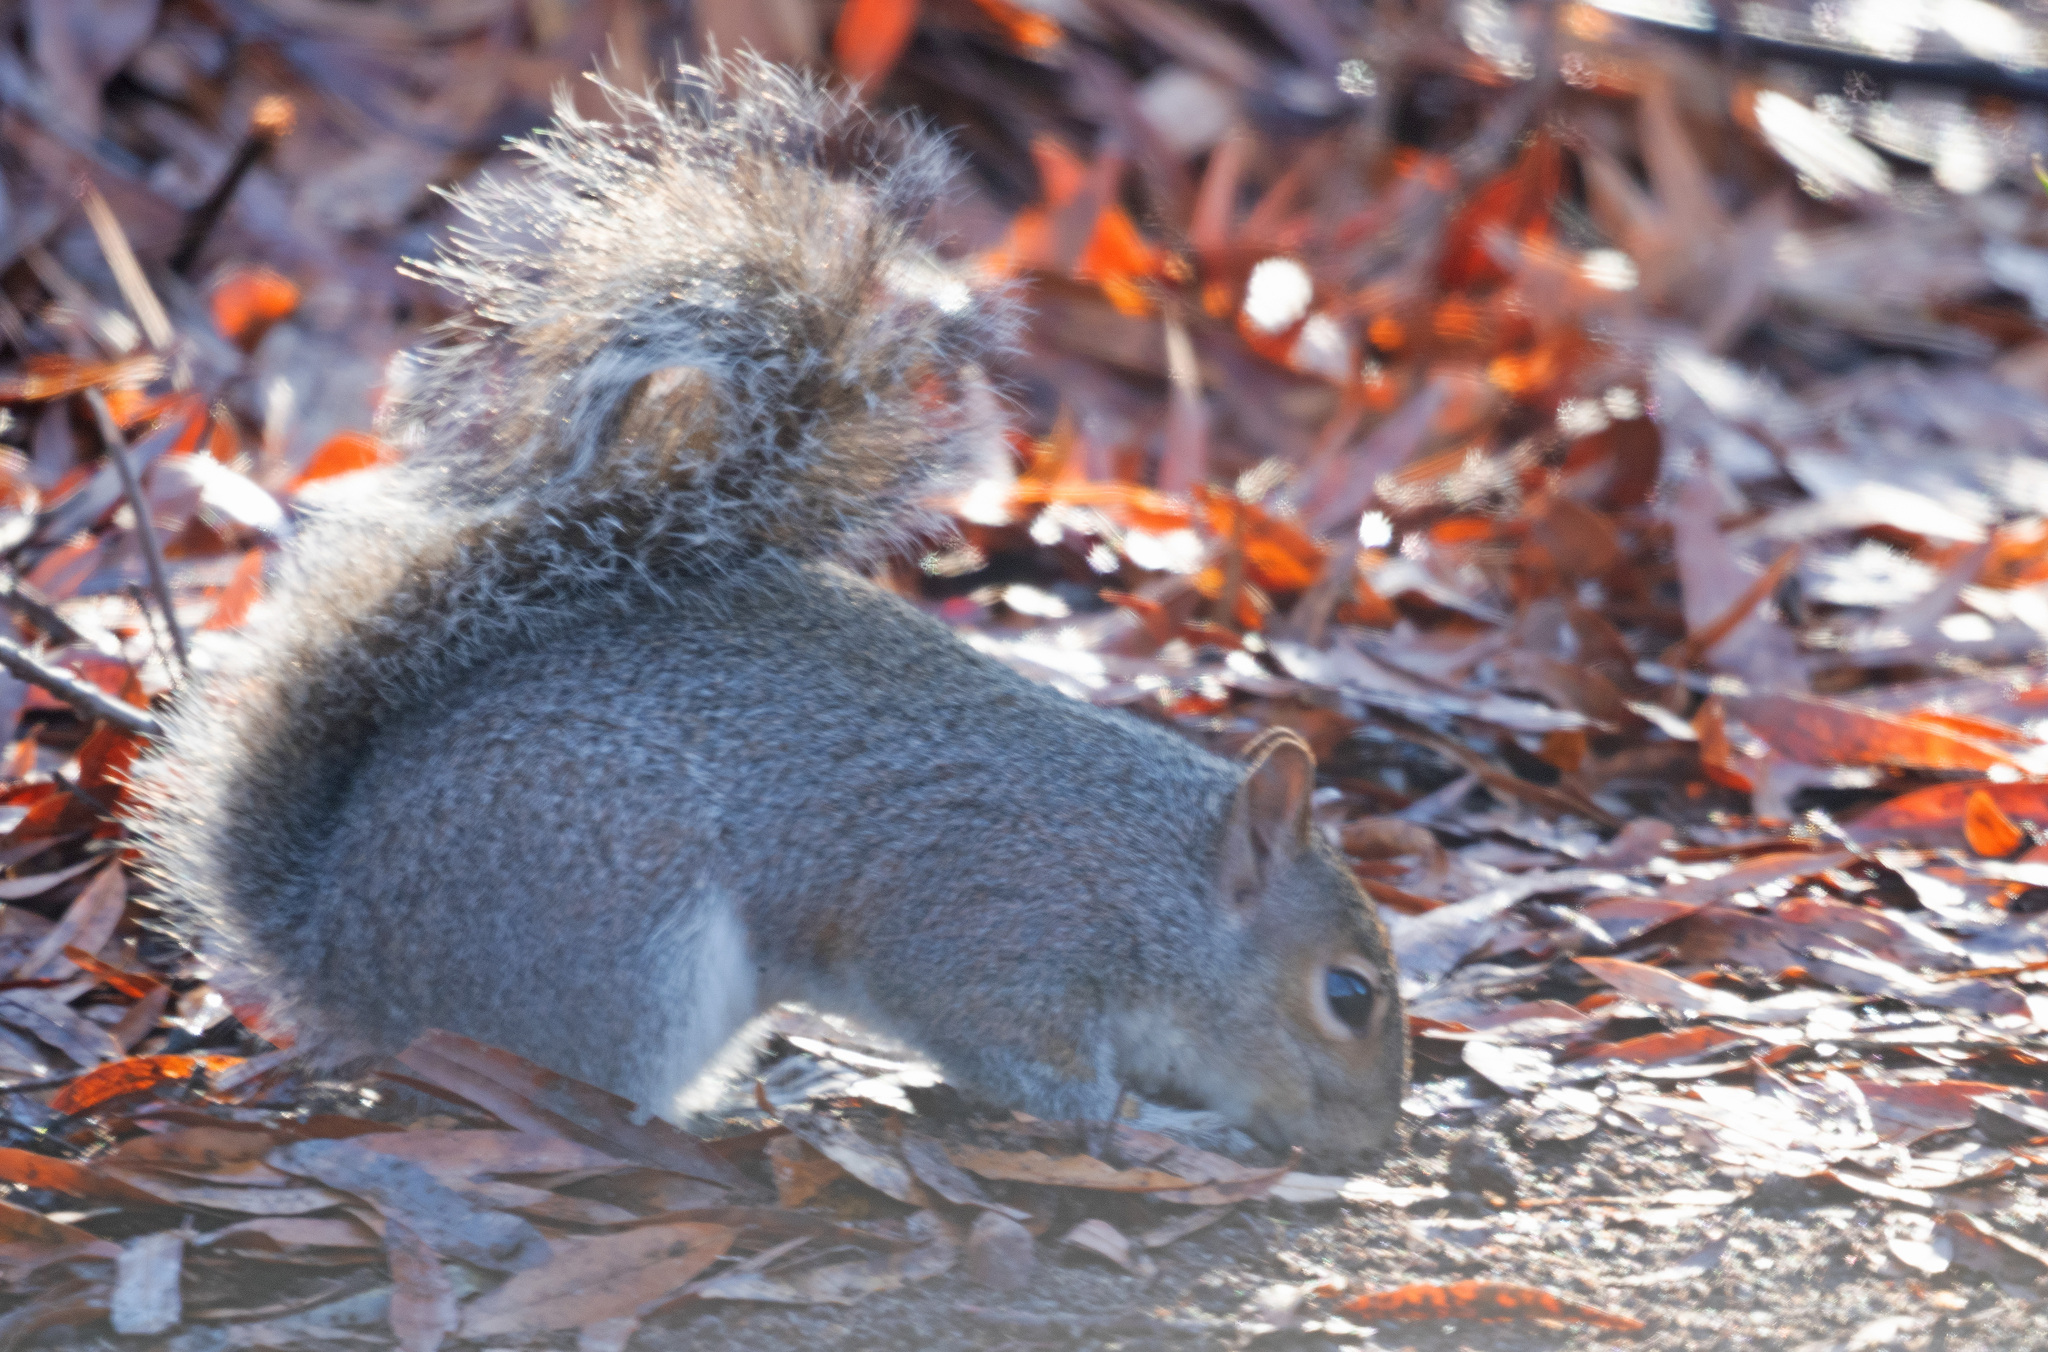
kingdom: Animalia
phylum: Chordata
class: Mammalia
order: Rodentia
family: Sciuridae
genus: Sciurus
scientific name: Sciurus carolinensis
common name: Eastern gray squirrel
